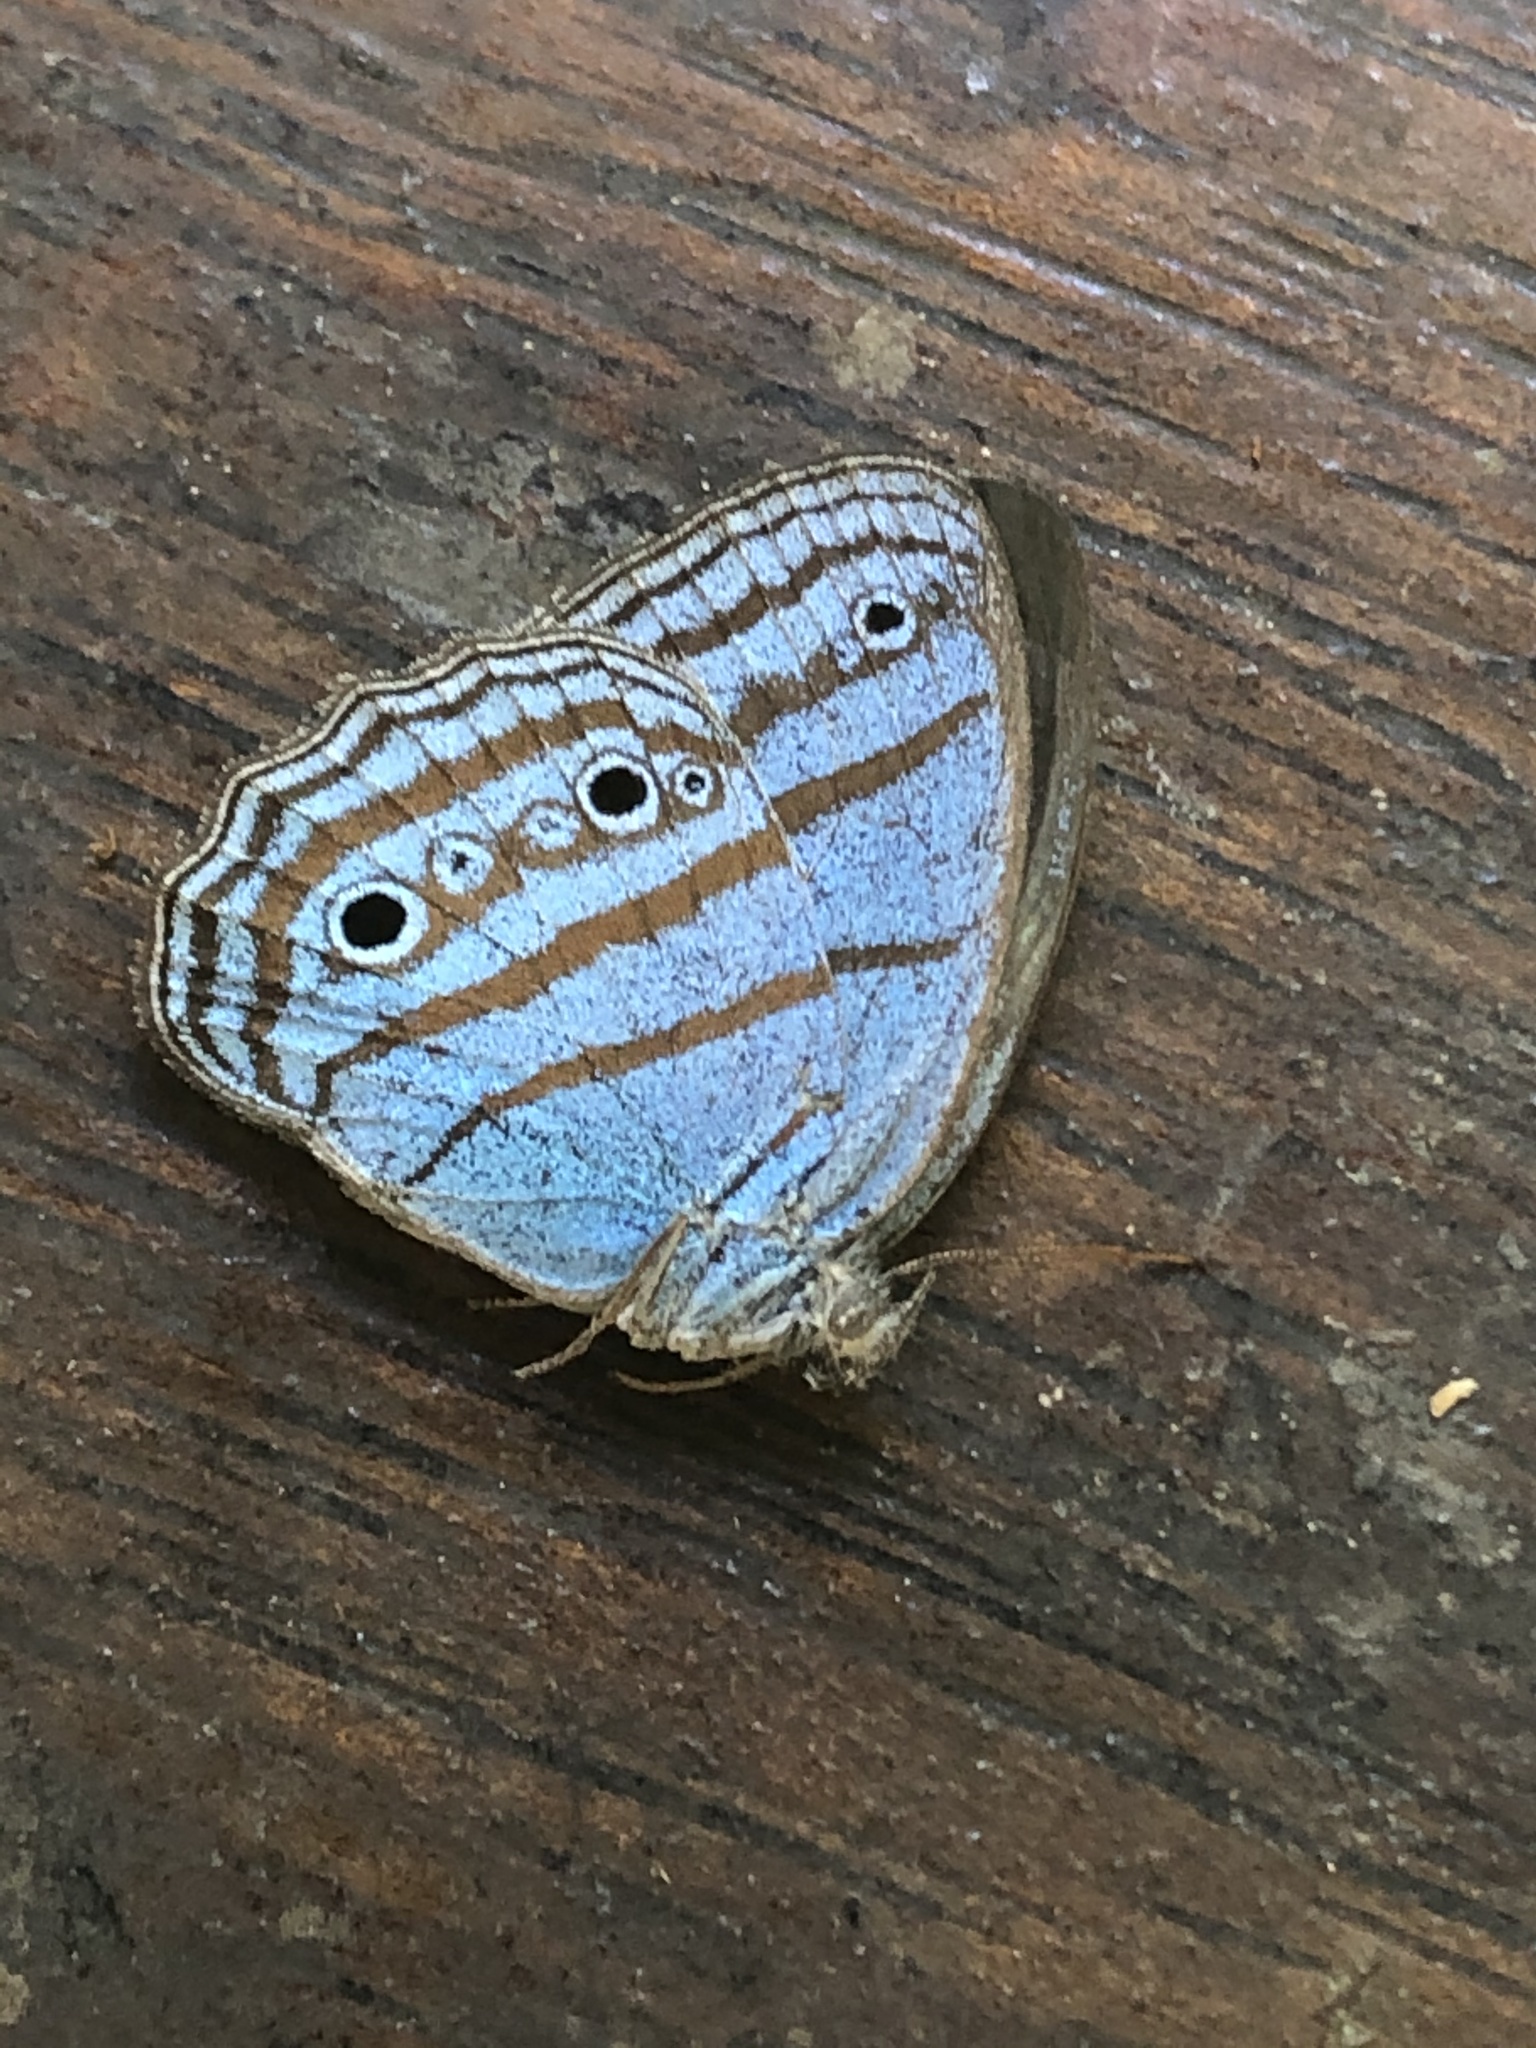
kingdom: Animalia
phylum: Arthropoda
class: Insecta
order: Lepidoptera
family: Nymphalidae
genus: Caeruleuptychia
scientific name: Caeruleuptychia coelestis
